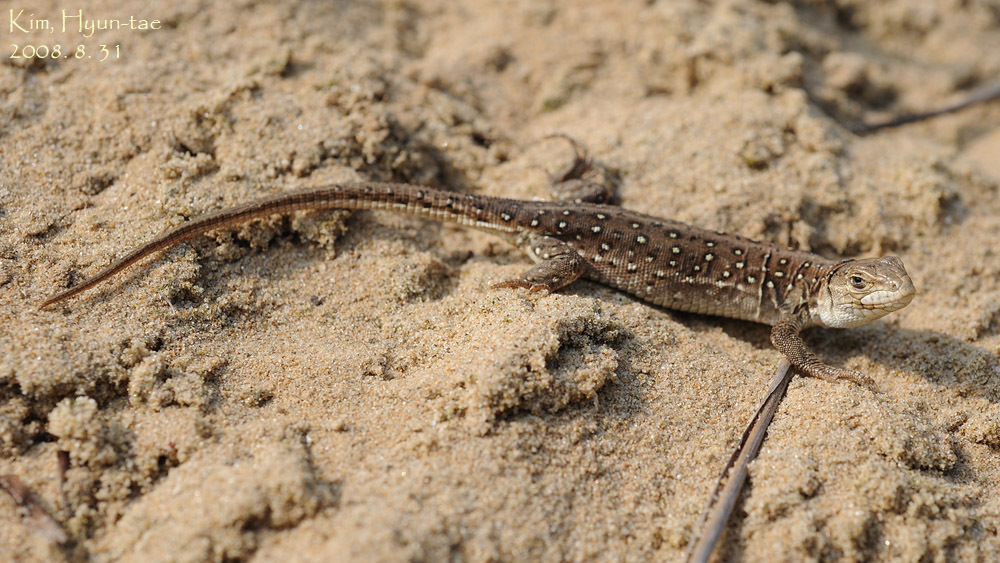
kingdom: Animalia
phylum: Chordata
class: Squamata
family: Lacertidae
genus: Eremias
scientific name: Eremias argus
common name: Mongolia racerunner
